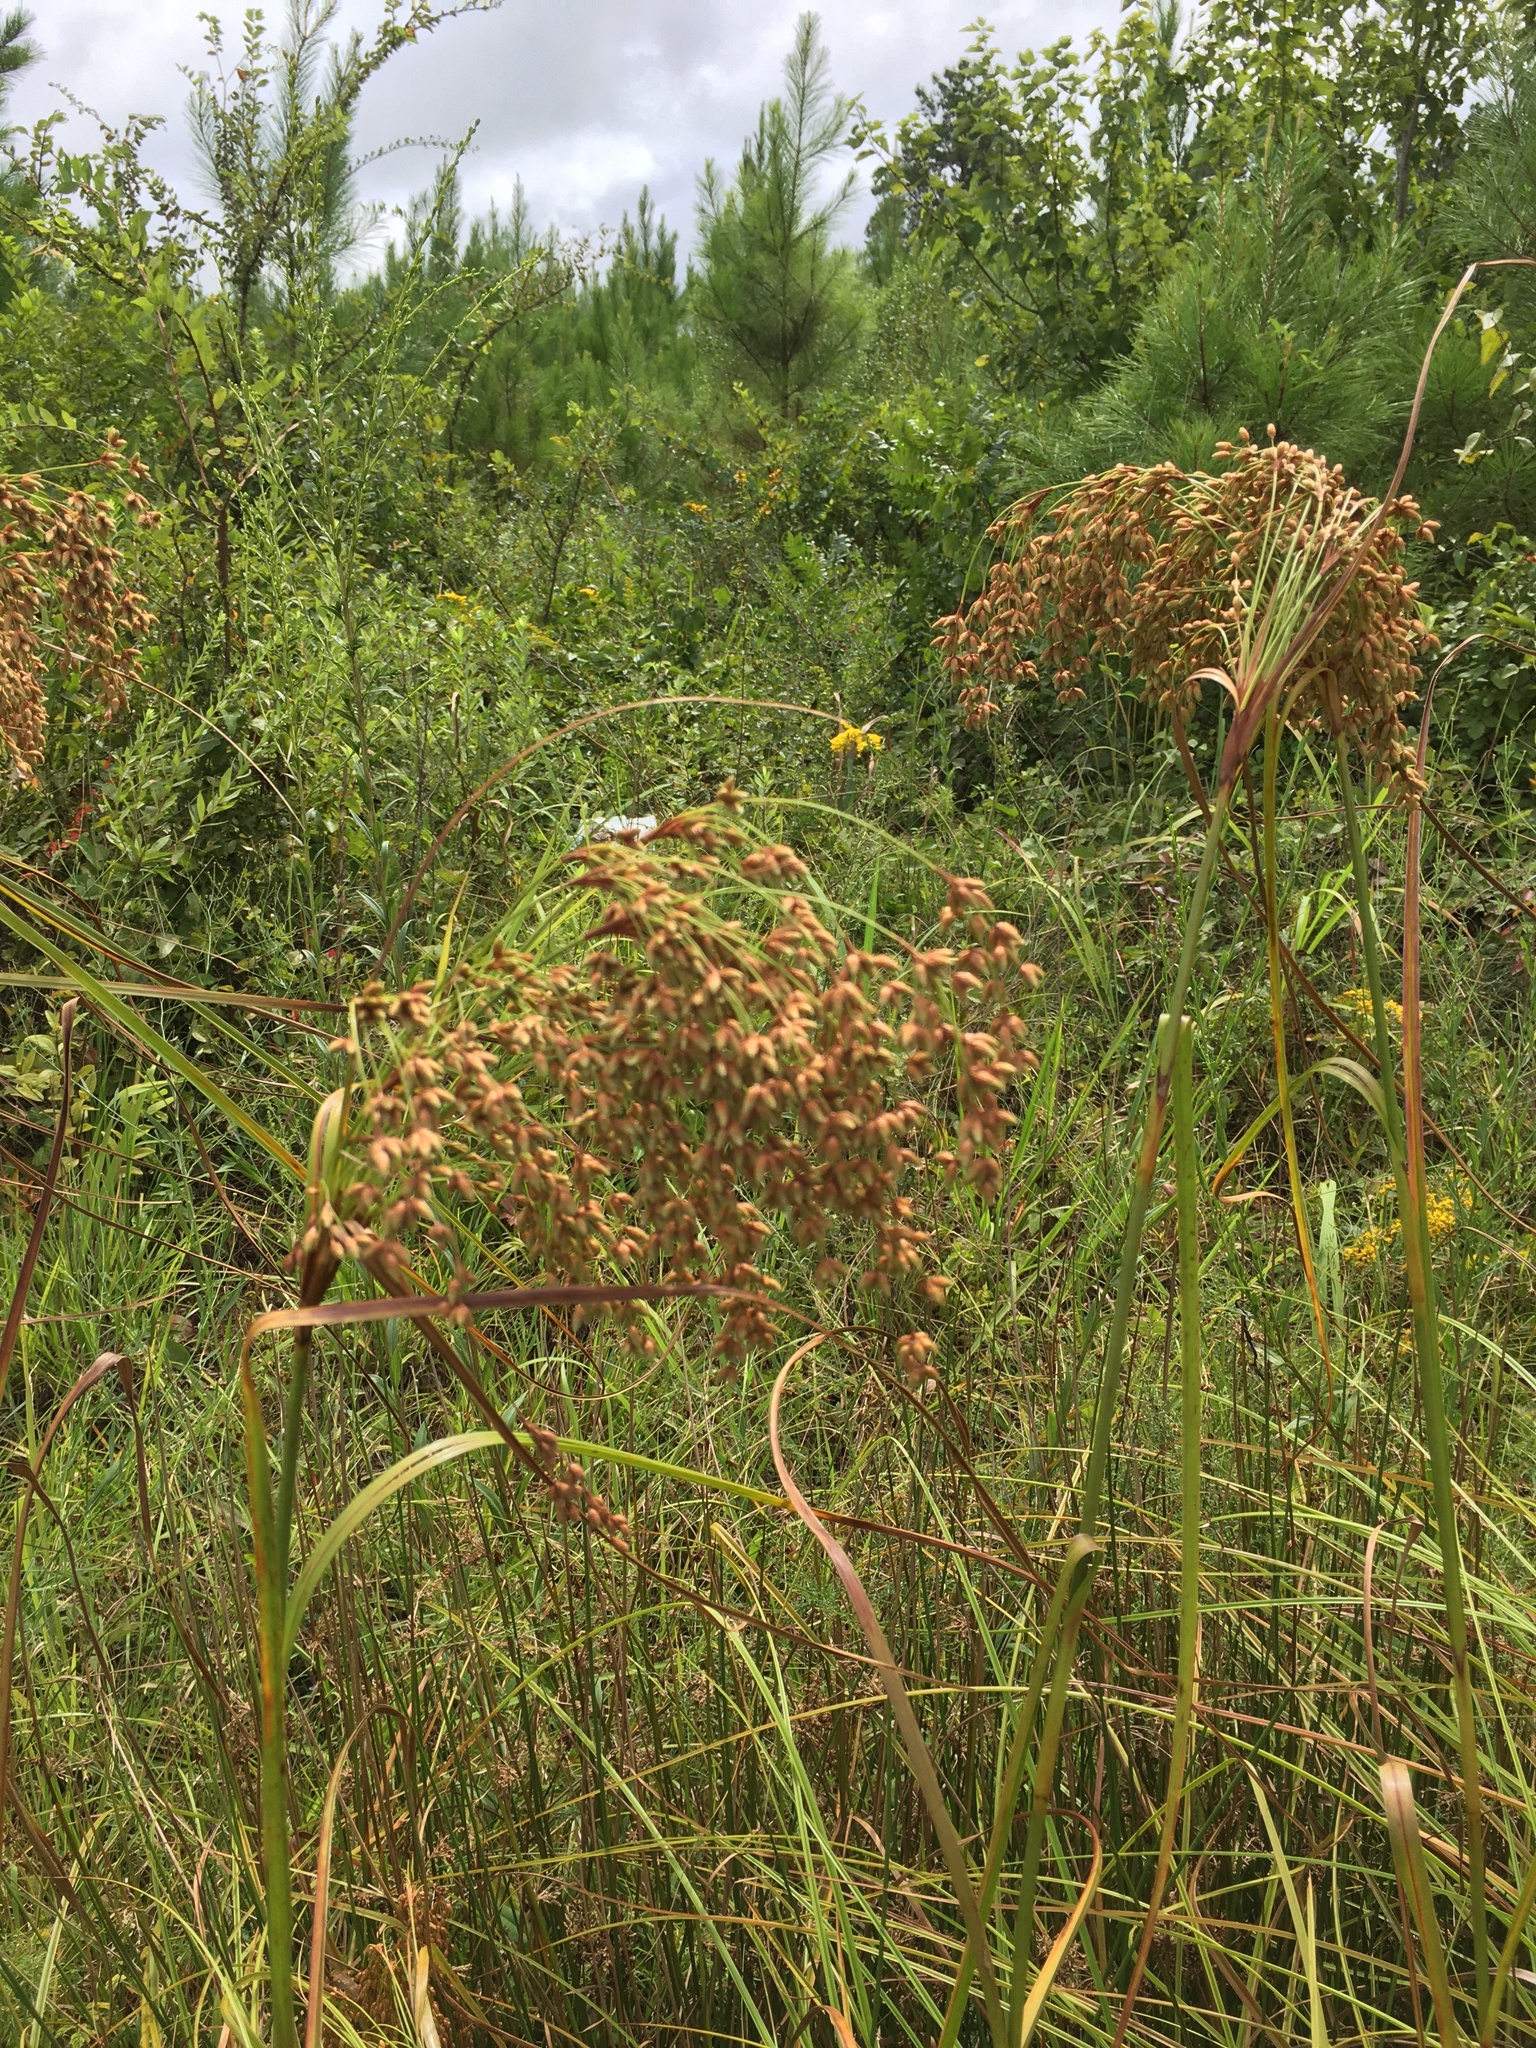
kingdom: Plantae
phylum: Tracheophyta
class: Liliopsida
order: Poales
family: Cyperaceae
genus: Scirpus
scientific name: Scirpus cyperinus
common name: Black-sheathed bulrush
